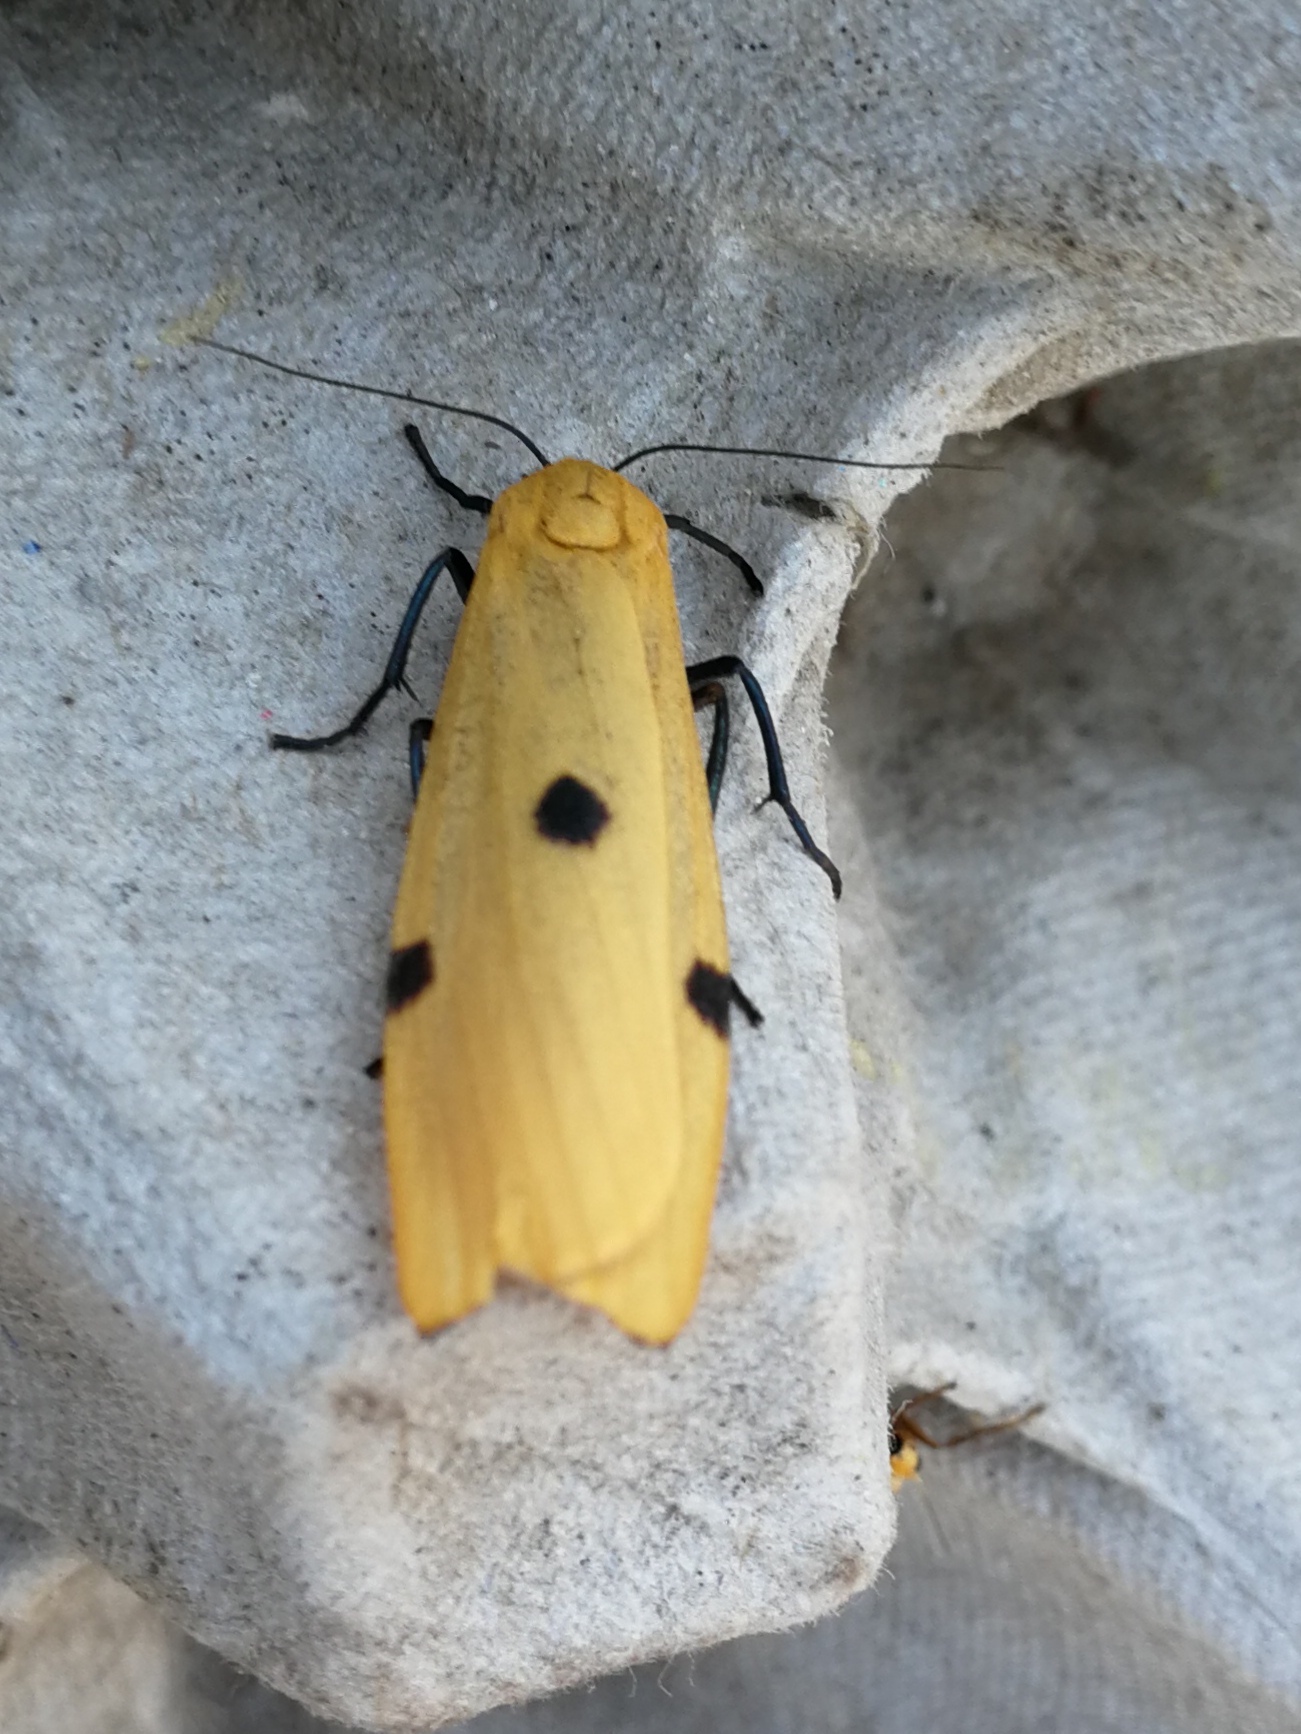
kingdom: Animalia
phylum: Arthropoda
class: Insecta
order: Lepidoptera
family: Erebidae
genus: Lithosia
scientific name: Lithosia quadra
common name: Four-spotted footman
